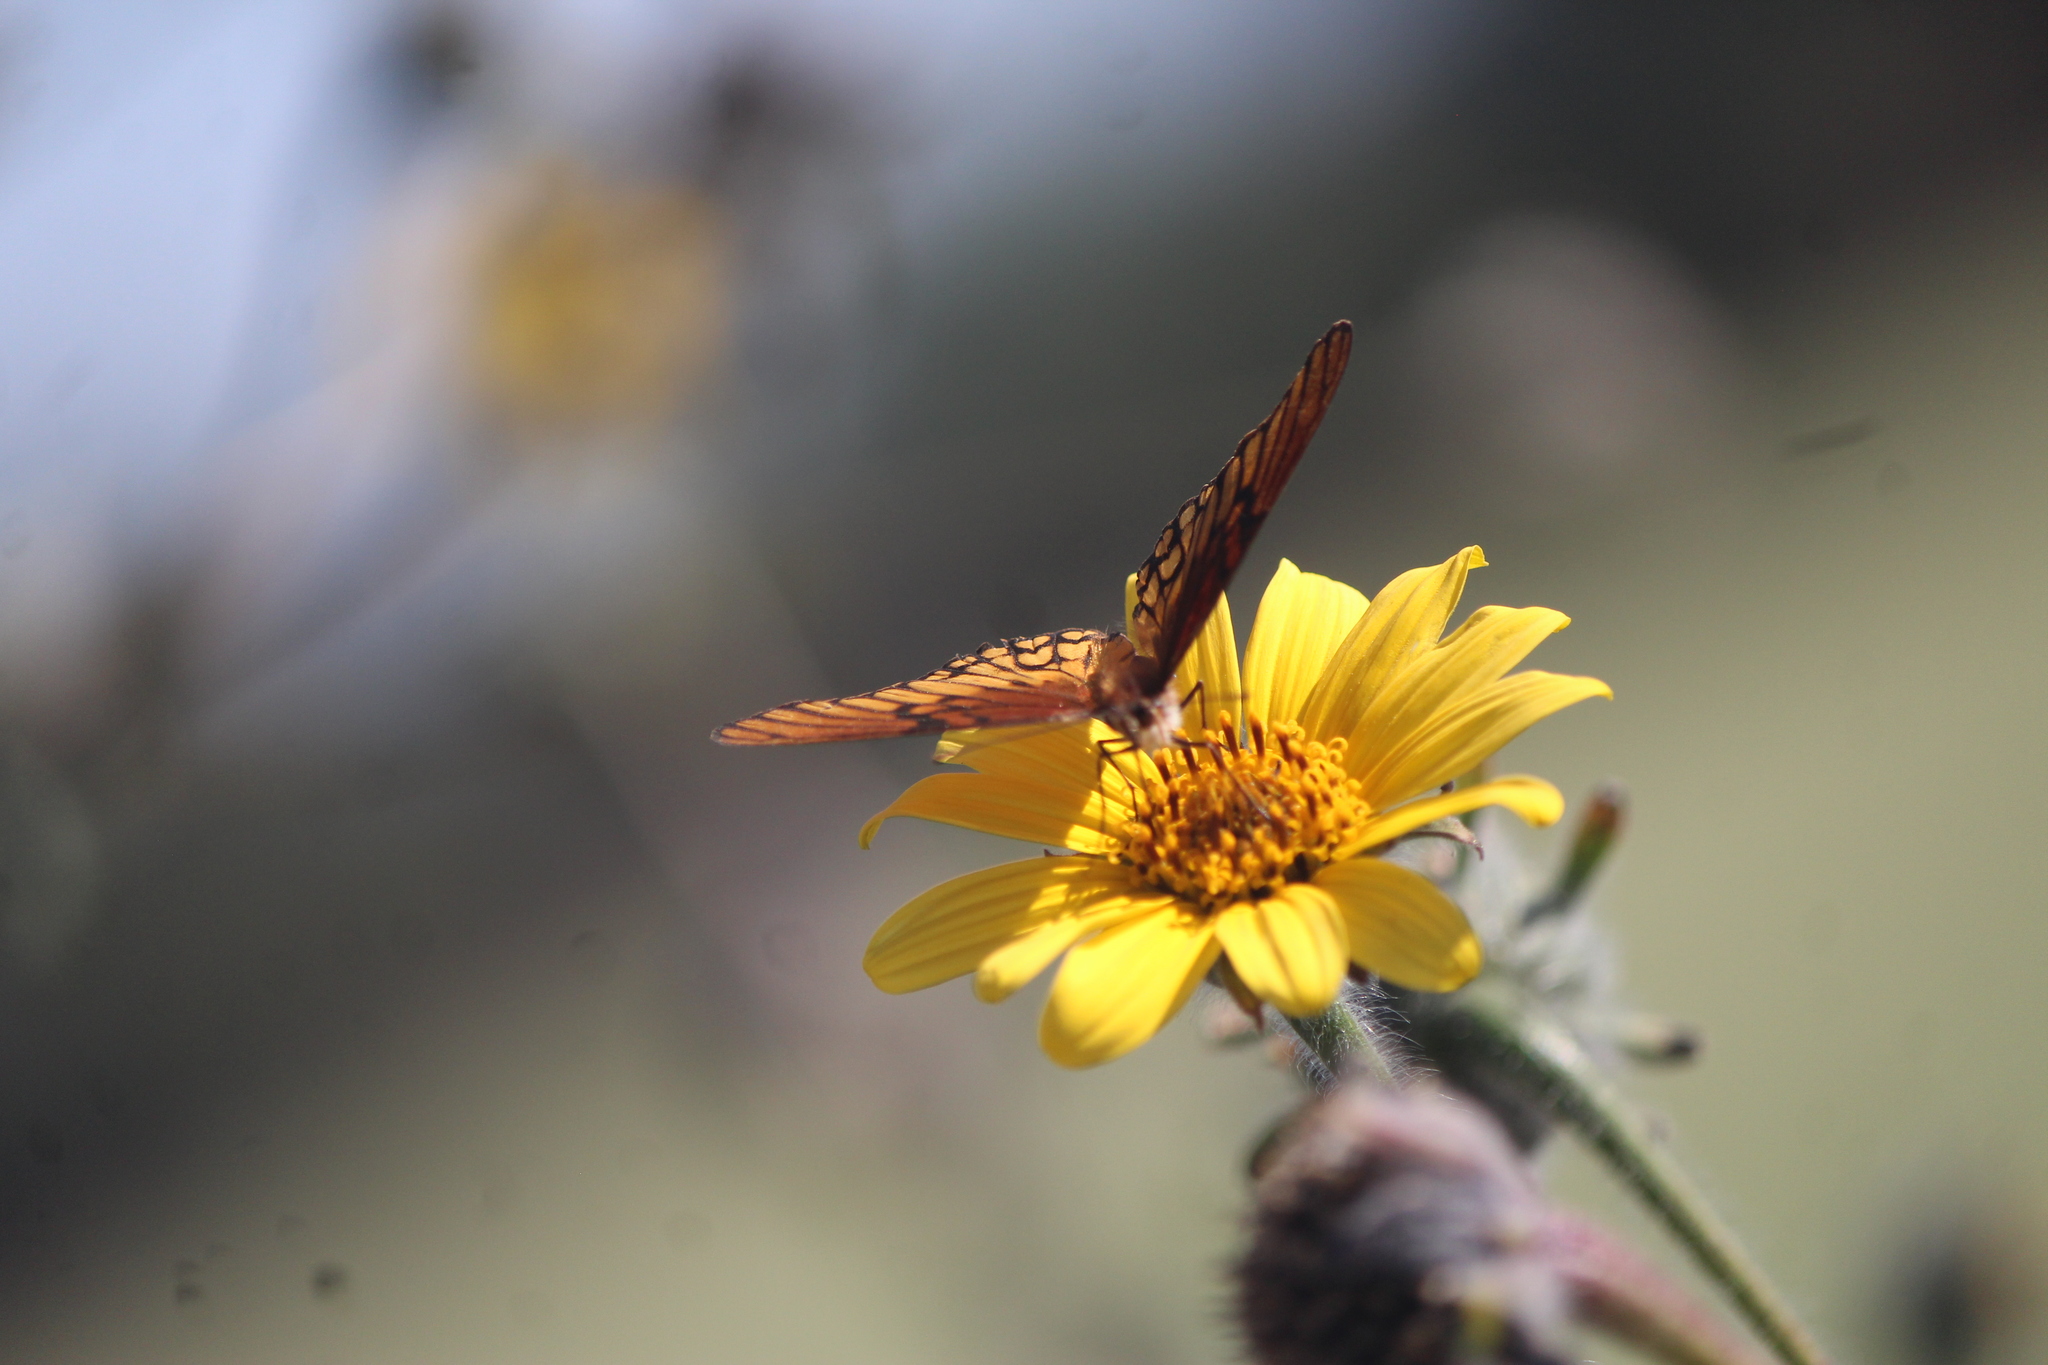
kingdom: Animalia
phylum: Arthropoda
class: Insecta
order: Lepidoptera
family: Nymphalidae
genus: Dione
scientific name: Dione moneta
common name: Mexican silverspot
